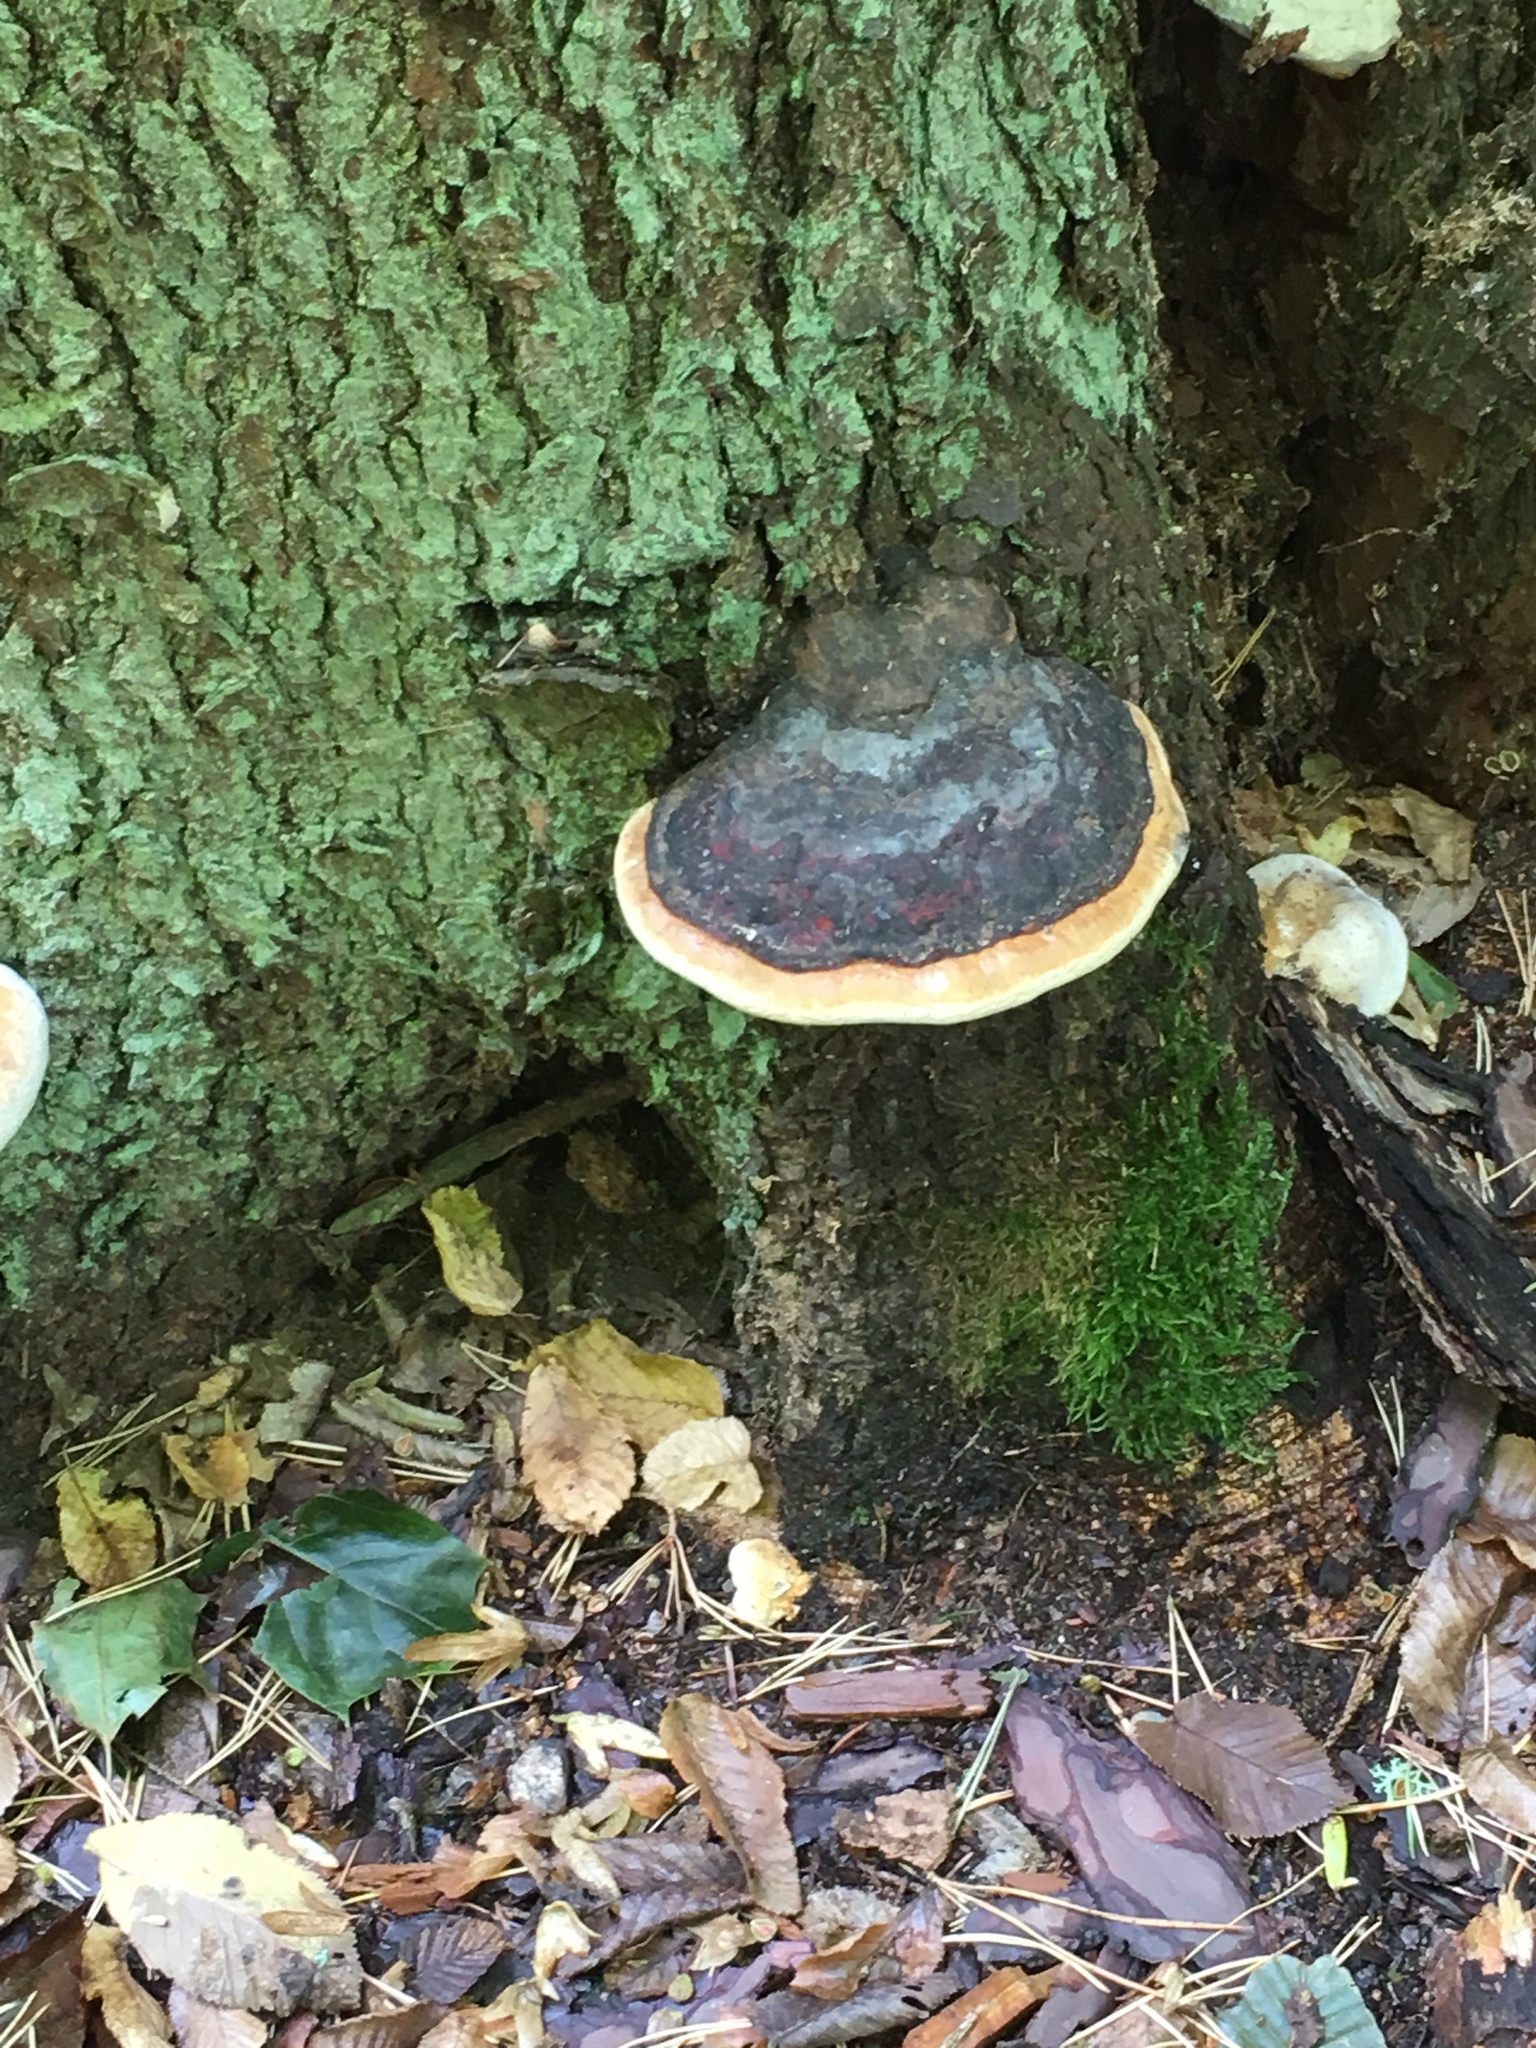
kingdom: Fungi
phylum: Basidiomycota
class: Agaricomycetes
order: Polyporales
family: Fomitopsidaceae
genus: Fomitopsis
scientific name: Fomitopsis pinicola
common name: Red-belted bracket
